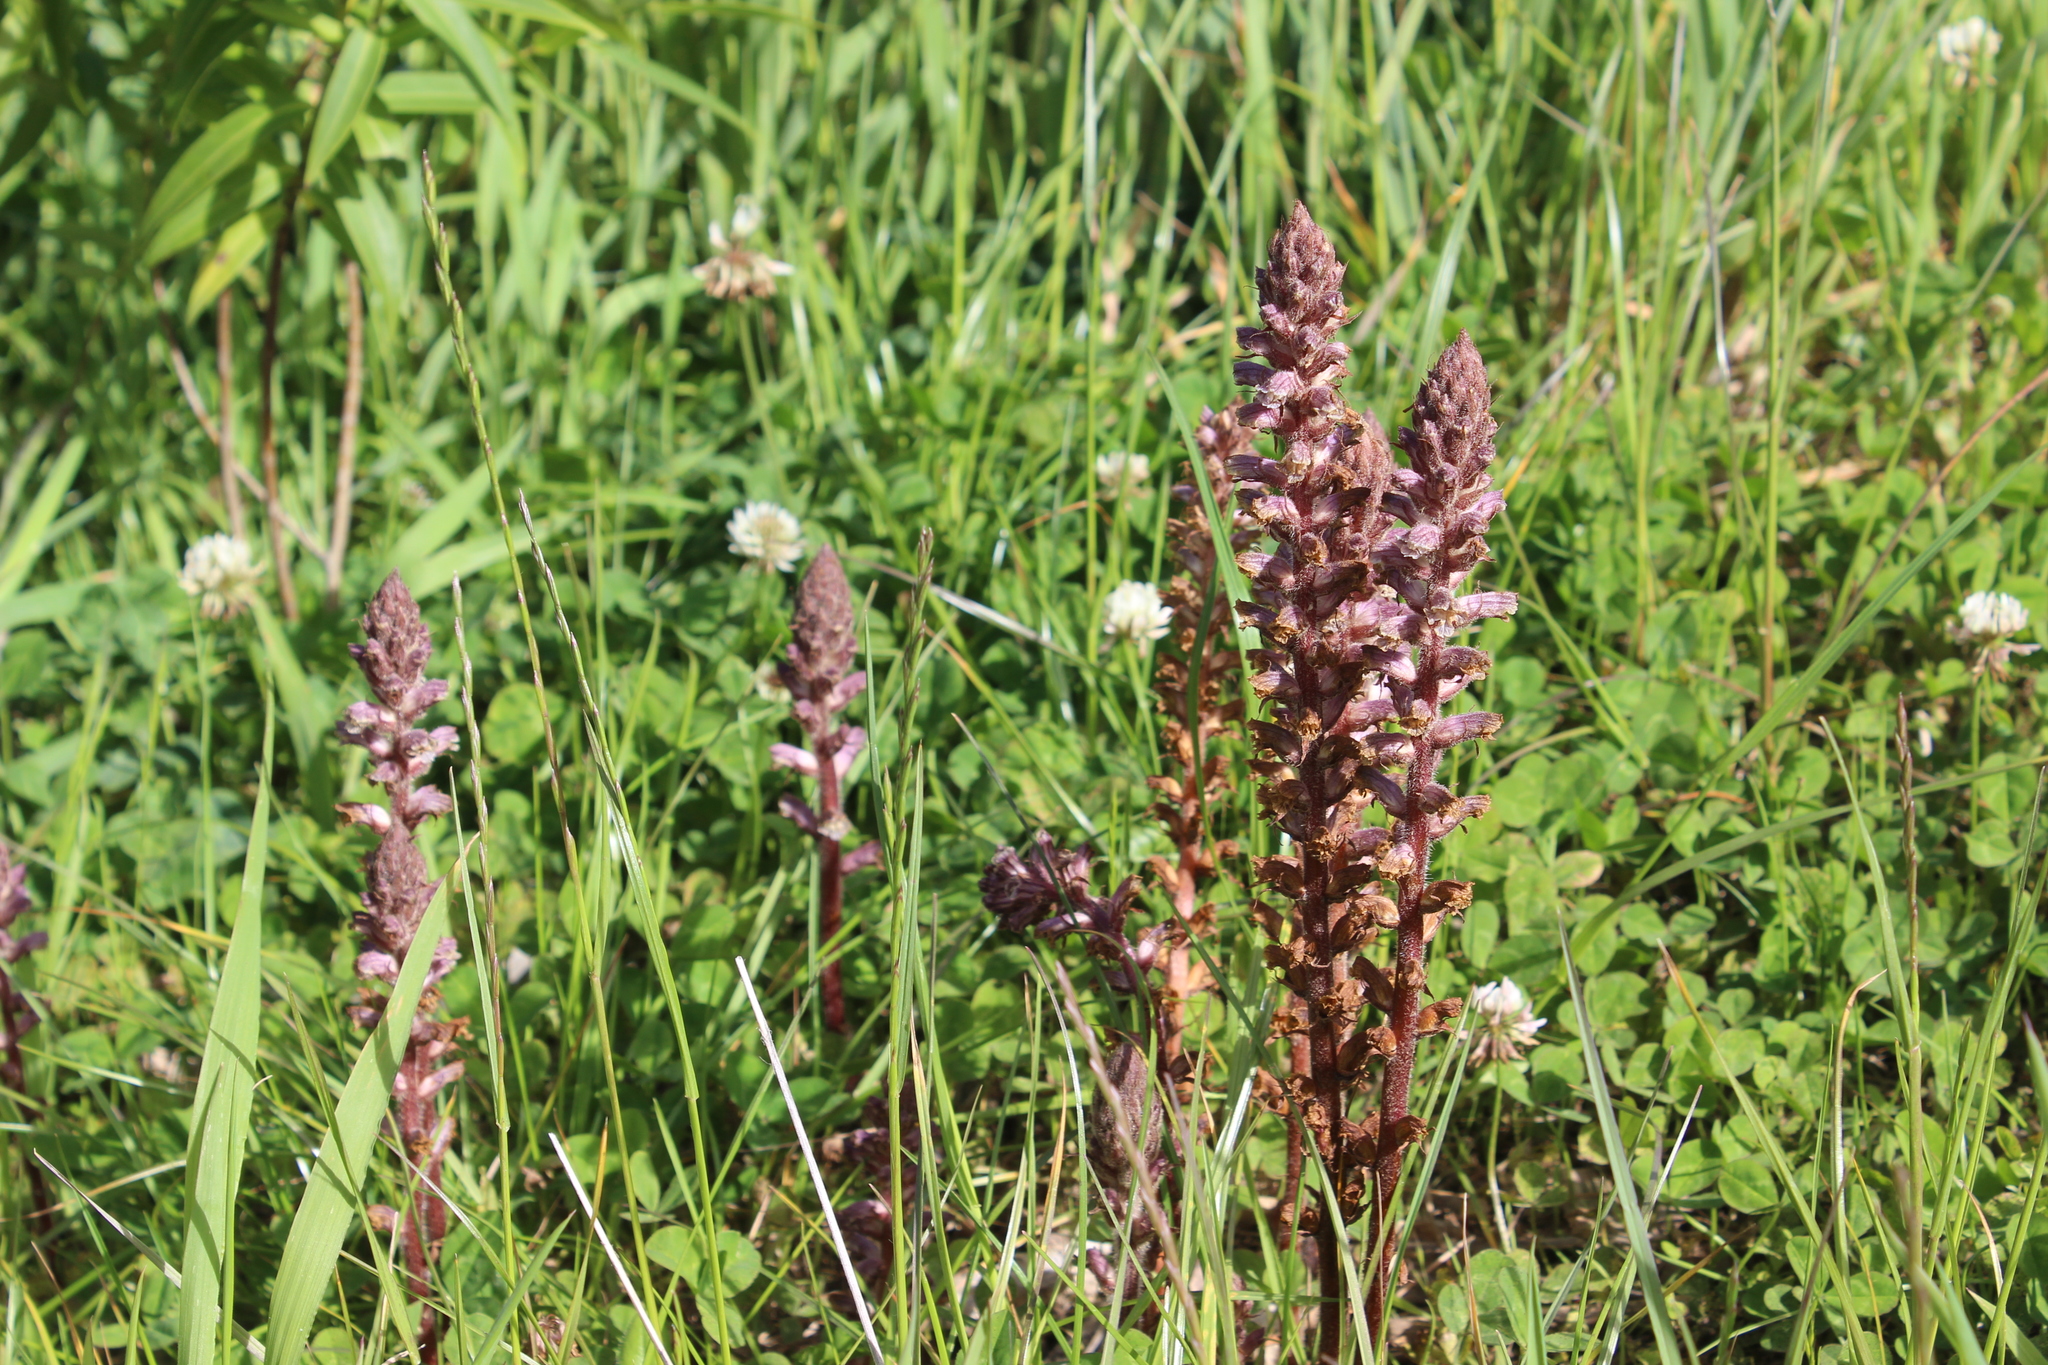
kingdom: Plantae
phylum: Tracheophyta
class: Magnoliopsida
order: Lamiales
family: Orobanchaceae
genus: Orobanche
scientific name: Orobanche minor
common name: Common broomrape
